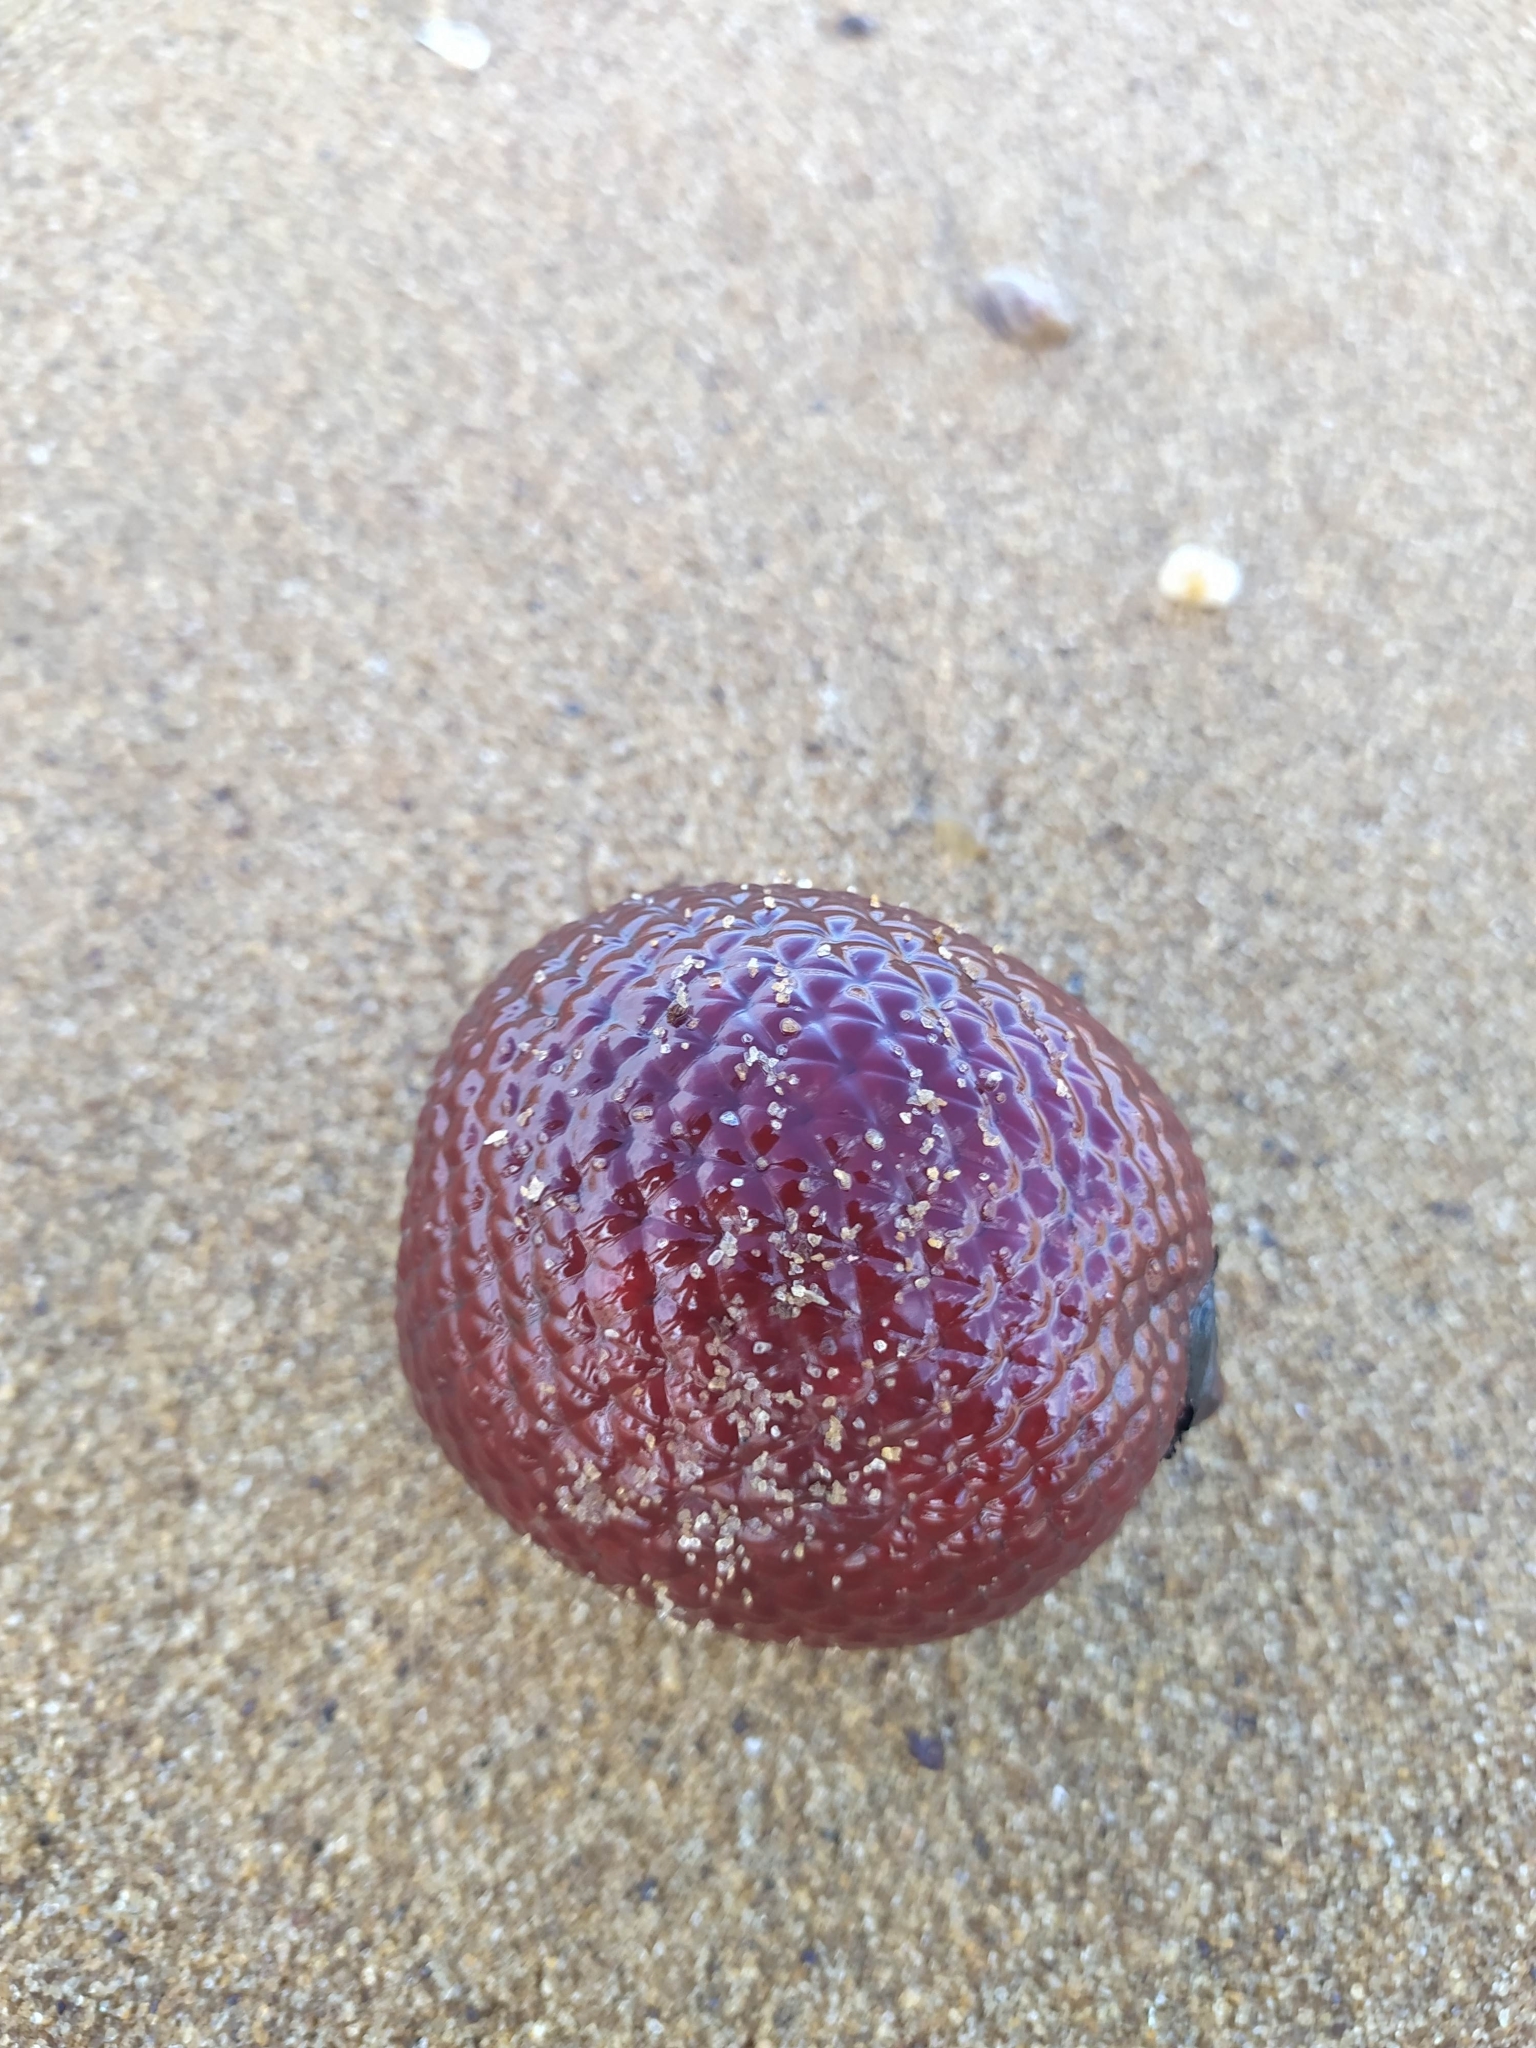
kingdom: Plantae
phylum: Tracheophyta
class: Liliopsida
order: Arecales
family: Arecaceae
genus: Mauritia
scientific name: Mauritia flexuosa
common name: Tree-of-life
